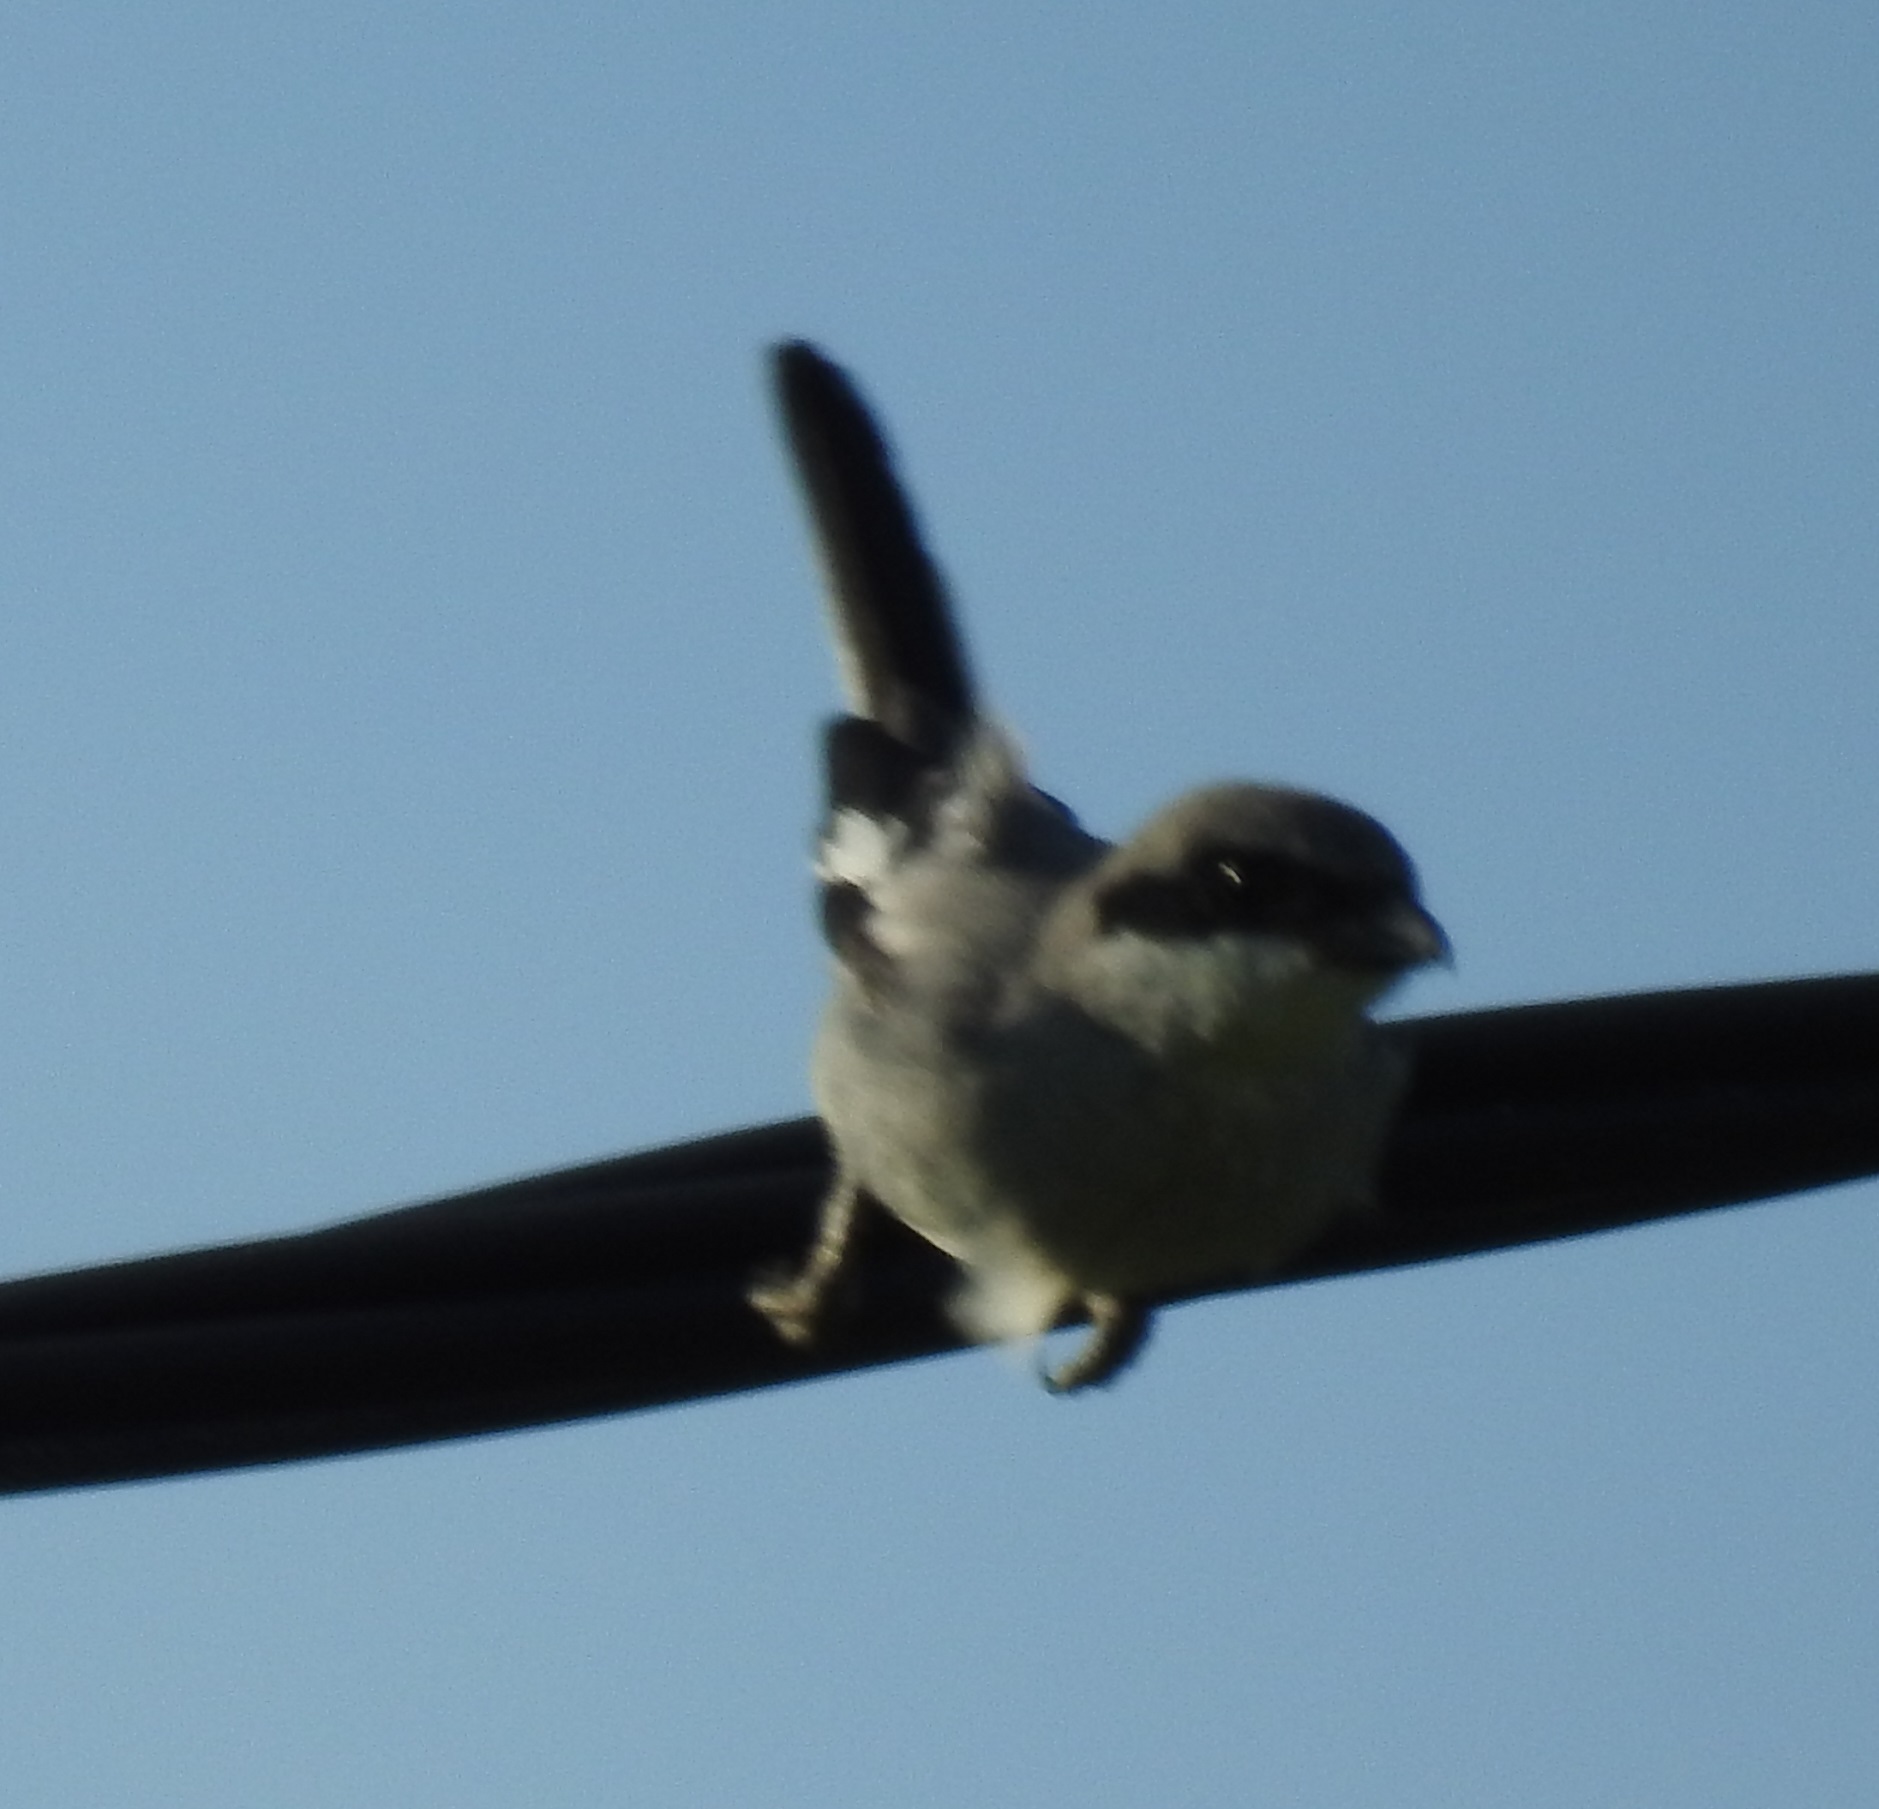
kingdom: Animalia
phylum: Chordata
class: Aves
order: Passeriformes
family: Laniidae
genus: Lanius
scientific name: Lanius excubitor
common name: Great grey shrike
